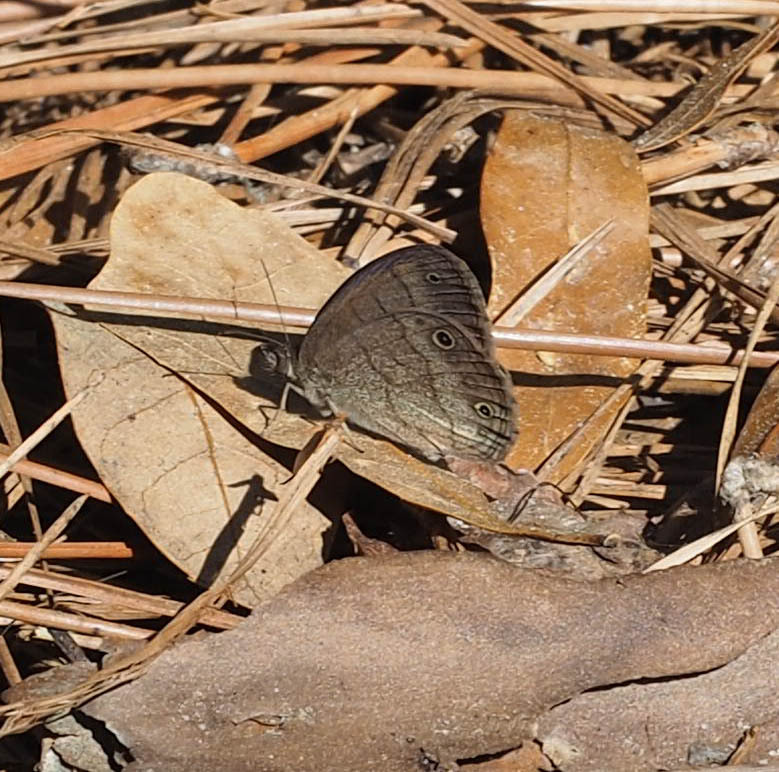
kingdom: Animalia
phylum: Arthropoda
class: Insecta
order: Lepidoptera
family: Nymphalidae
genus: Hermeuptychia
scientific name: Hermeuptychia hermes
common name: Hermes satyr
